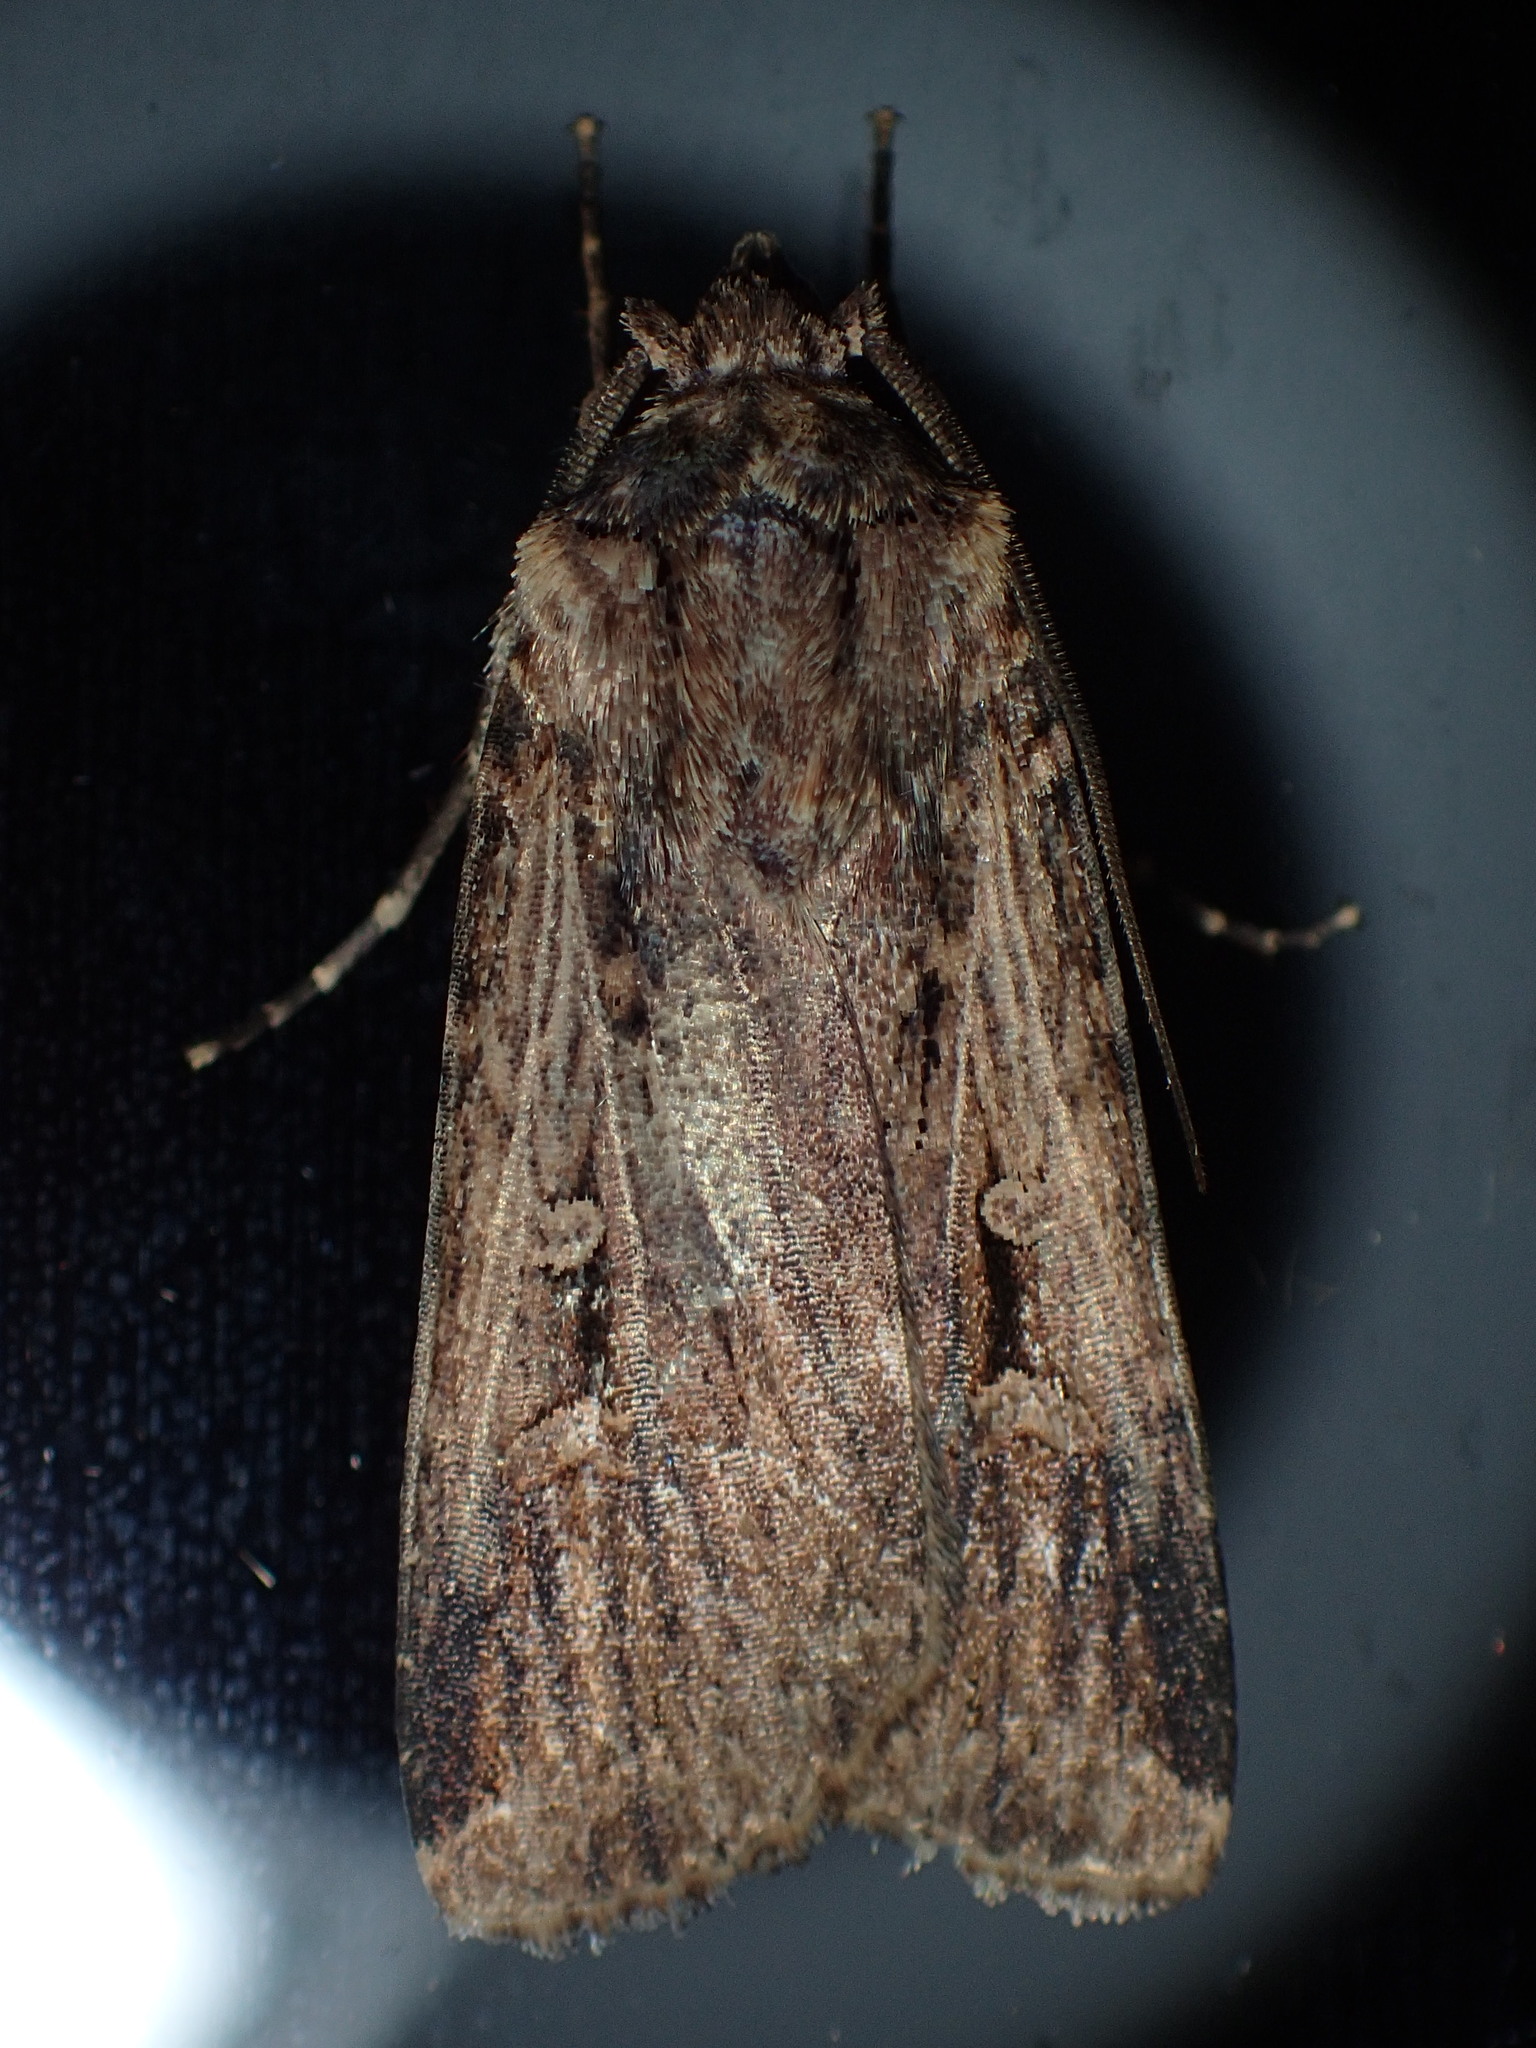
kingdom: Animalia
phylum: Arthropoda
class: Insecta
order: Lepidoptera
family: Noctuidae
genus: Feltia
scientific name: Feltia subterranea
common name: Granulate cutworm
